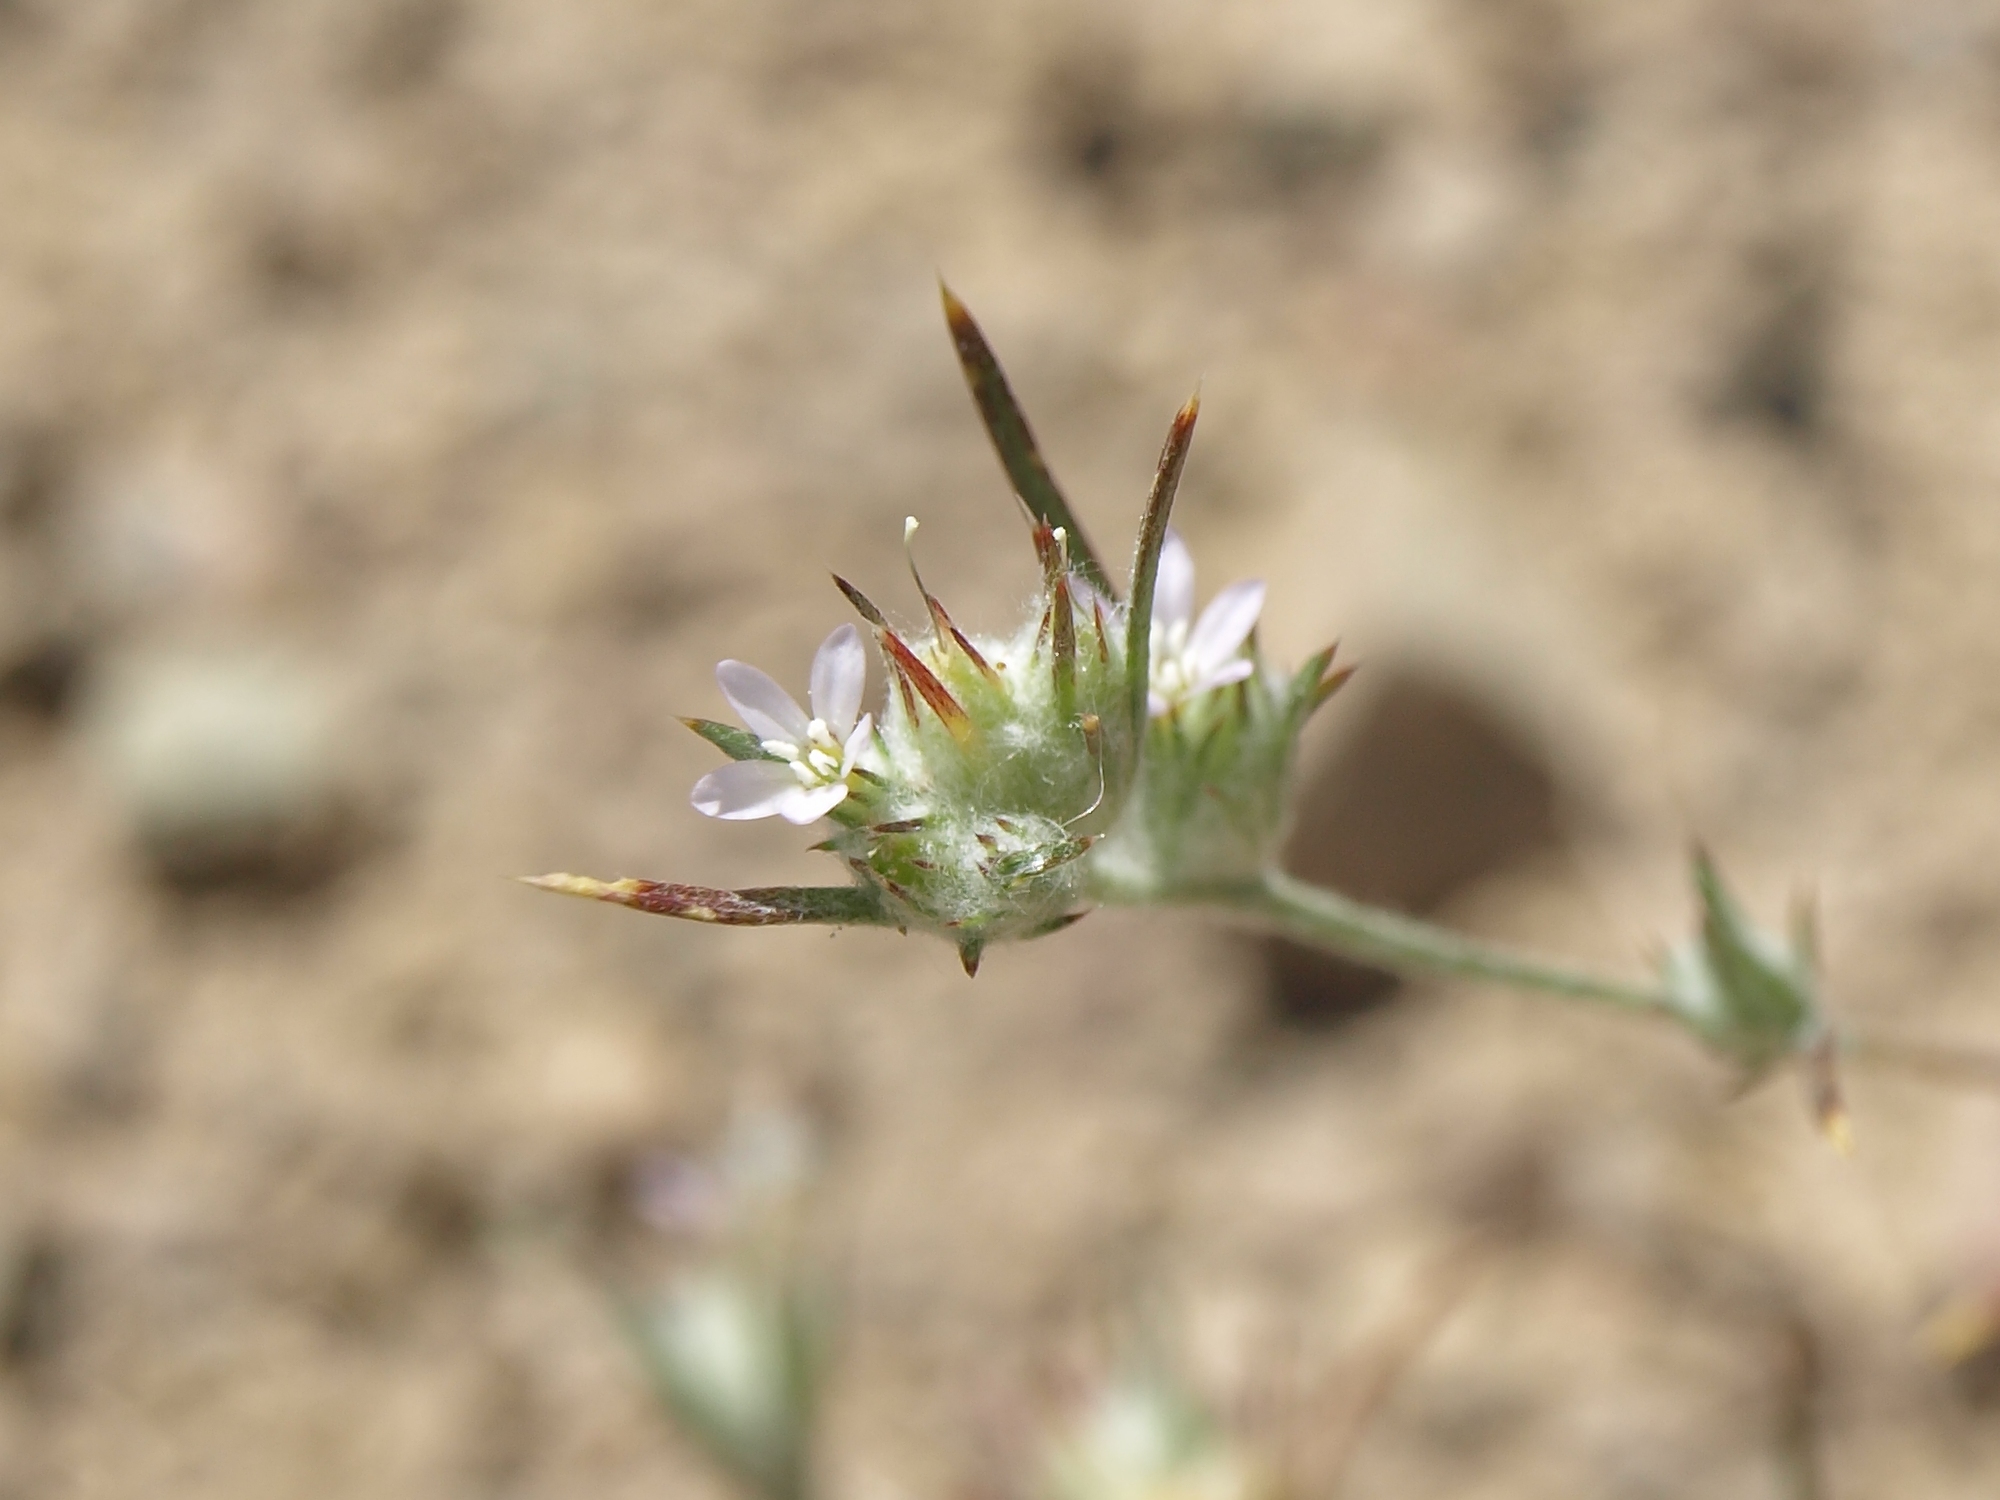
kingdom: Plantae
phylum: Tracheophyta
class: Magnoliopsida
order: Ericales
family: Polemoniaceae
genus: Eriastrum
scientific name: Eriastrum signatum
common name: Great basin woollystar
